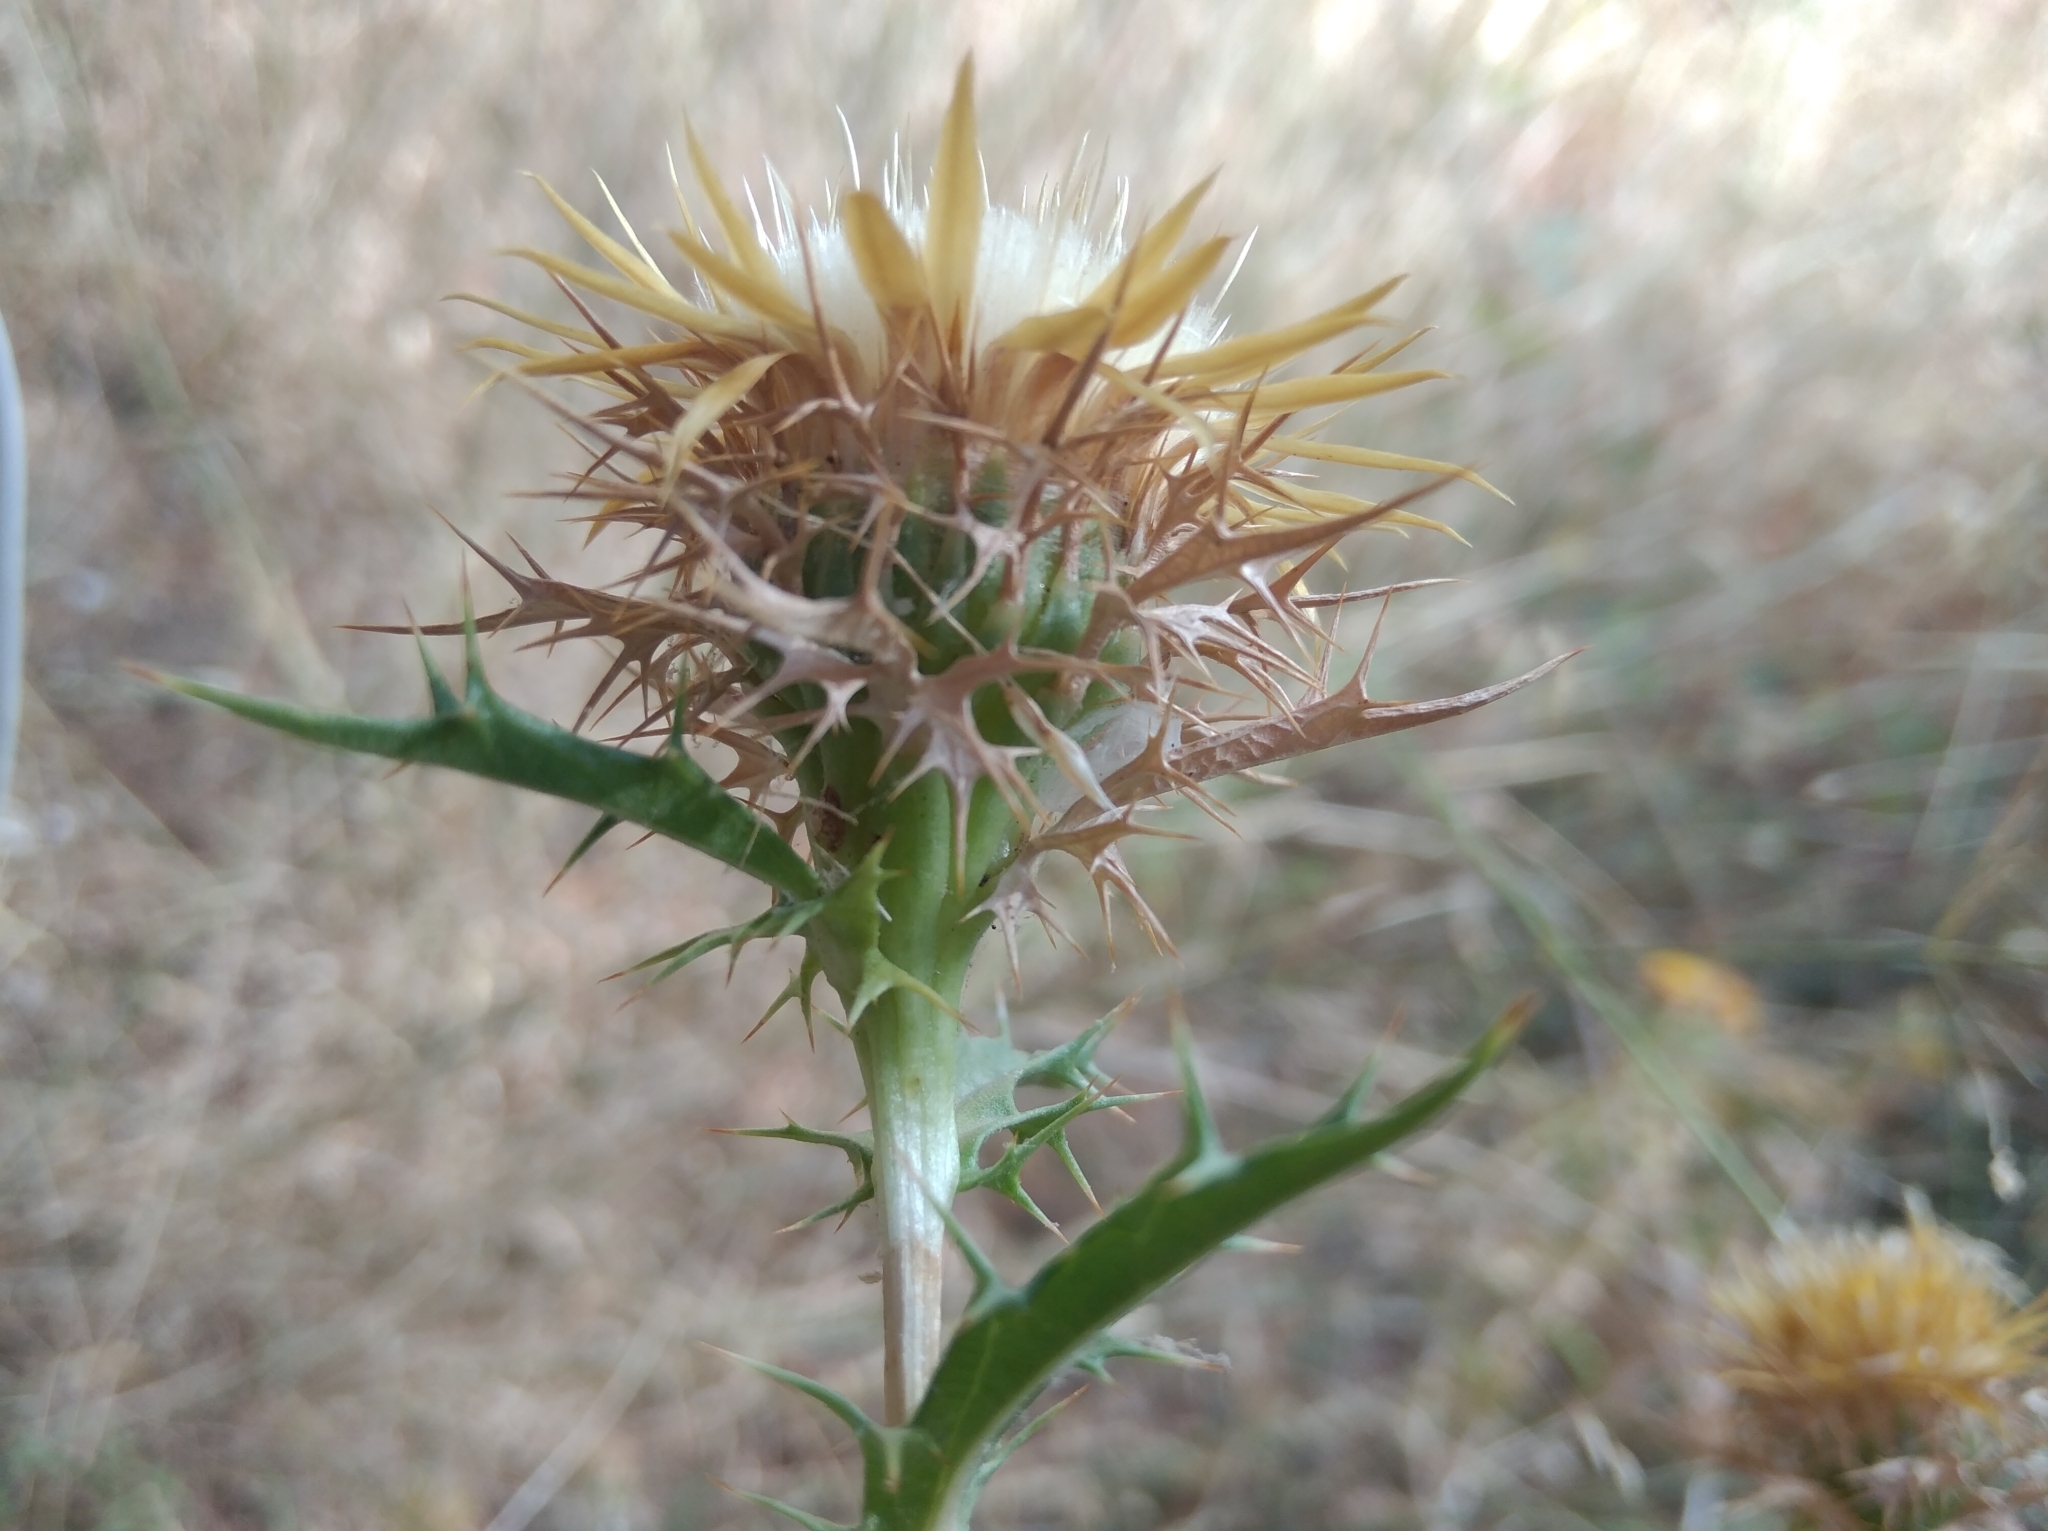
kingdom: Plantae
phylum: Tracheophyta
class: Magnoliopsida
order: Asterales
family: Asteraceae
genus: Carlina
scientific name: Carlina vulgaris
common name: Carline thistle
